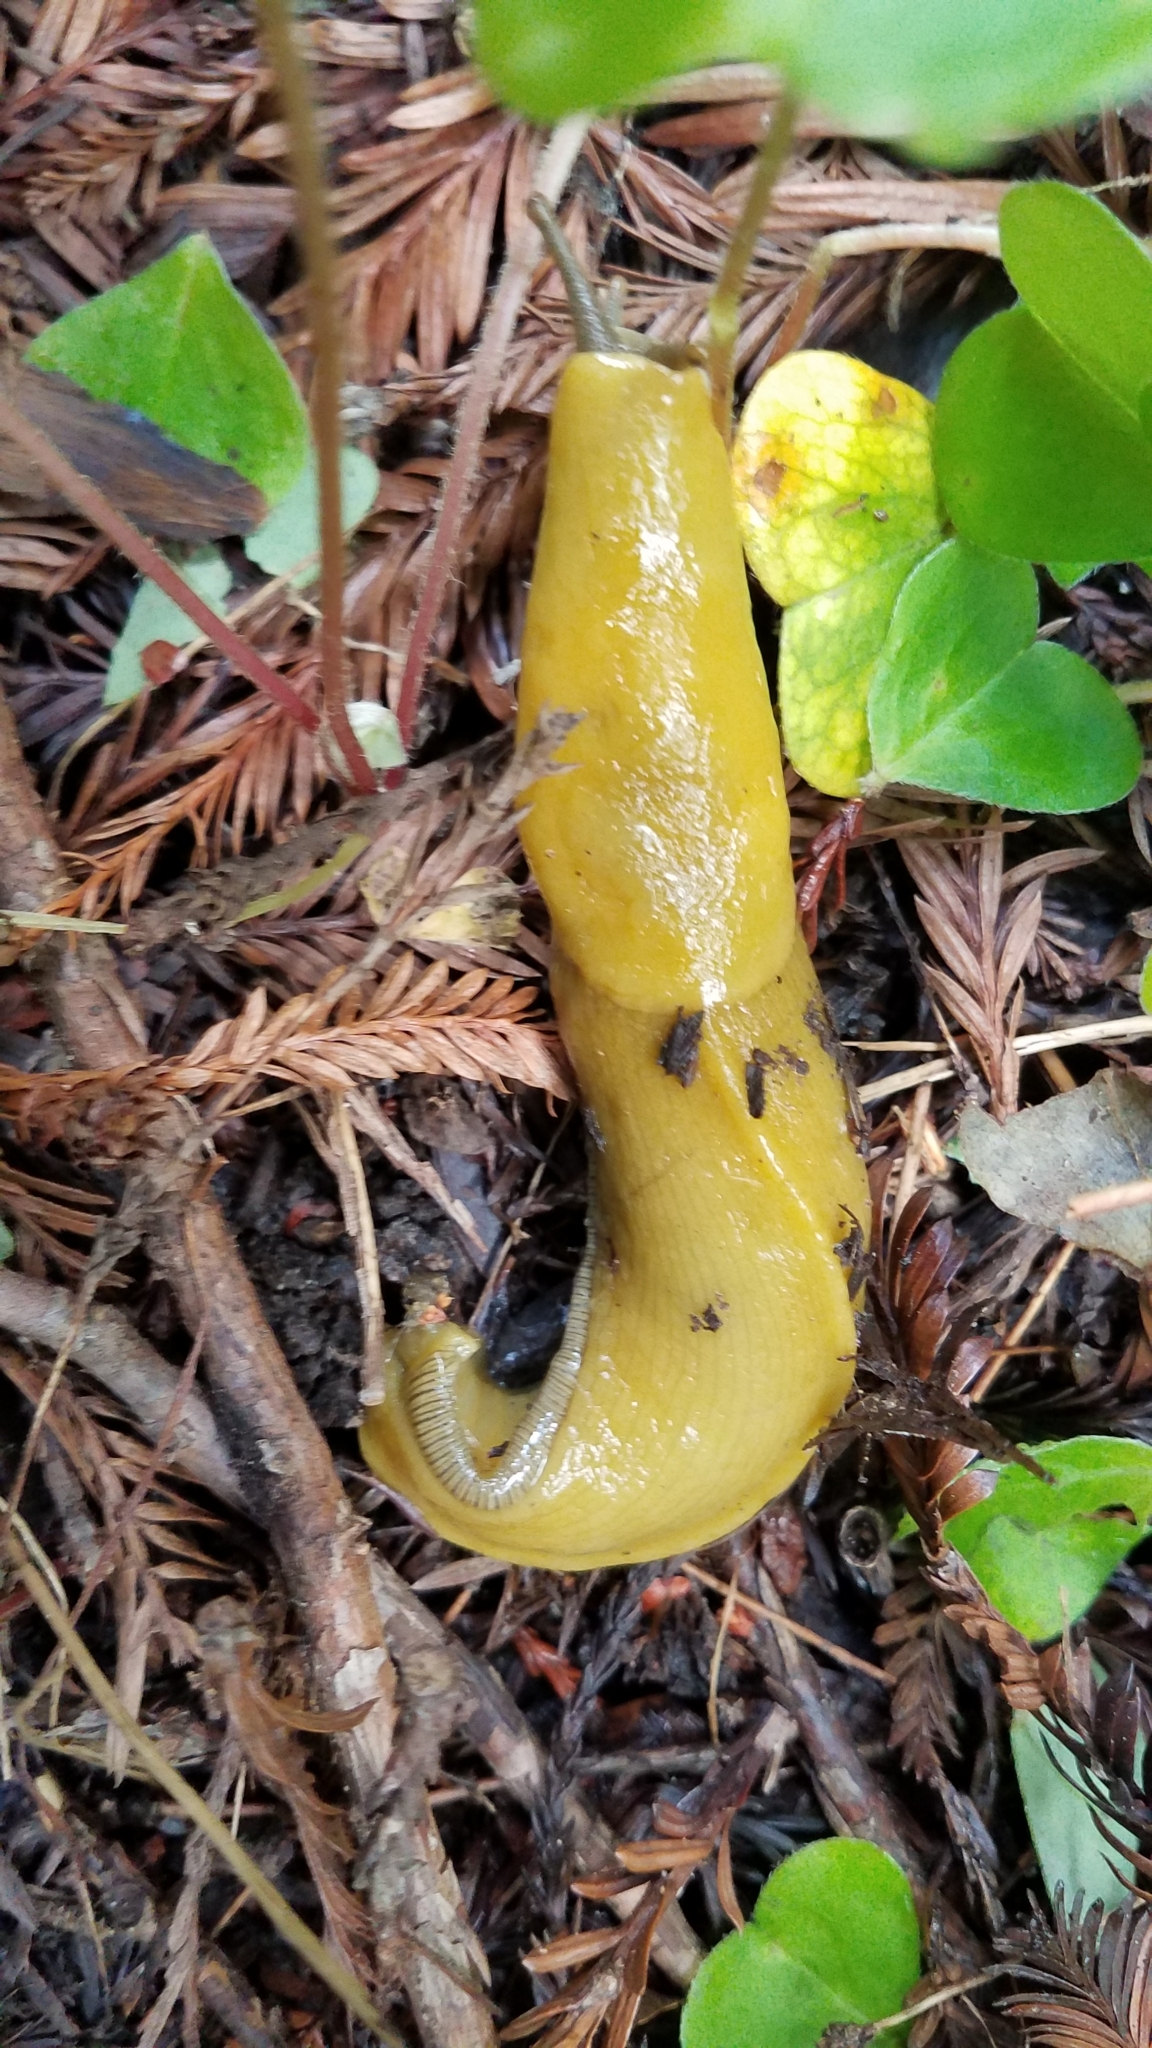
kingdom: Animalia
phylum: Mollusca
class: Gastropoda
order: Stylommatophora
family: Ariolimacidae
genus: Ariolimax
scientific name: Ariolimax californicus
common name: California banana slug
